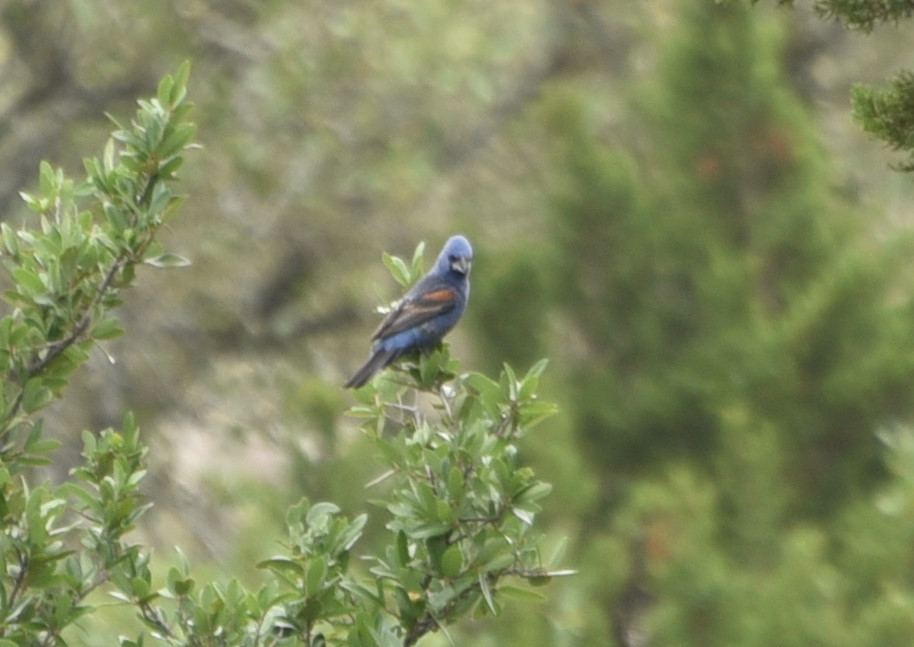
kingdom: Animalia
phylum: Chordata
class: Aves
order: Passeriformes
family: Cardinalidae
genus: Passerina
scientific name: Passerina caerulea
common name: Blue grosbeak
